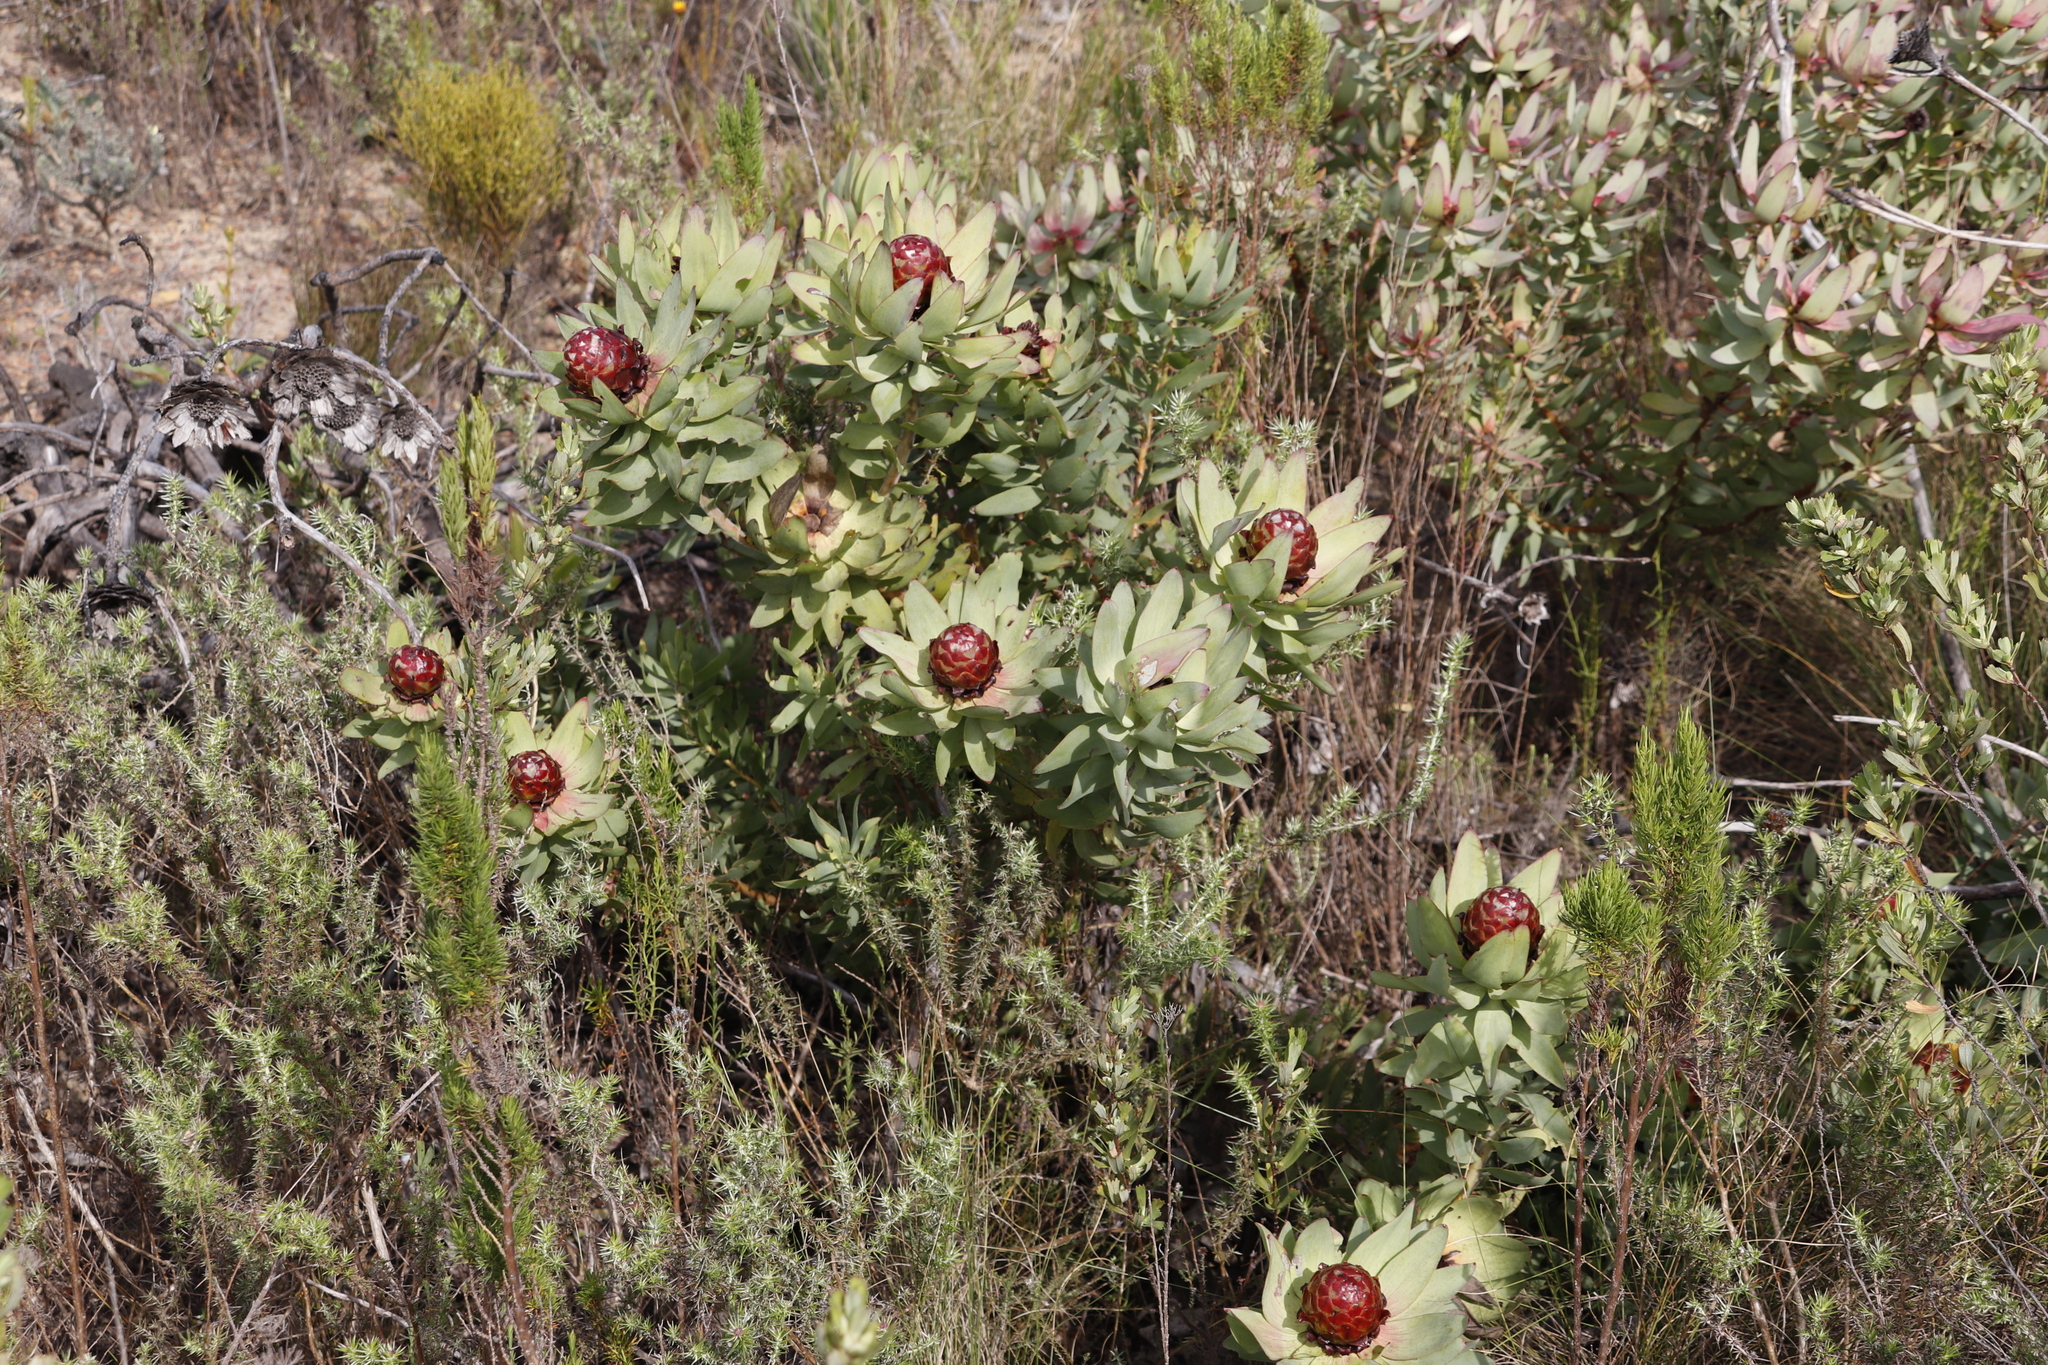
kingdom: Plantae
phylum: Tracheophyta
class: Magnoliopsida
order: Proteales
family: Proteaceae
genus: Leucadendron
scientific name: Leucadendron tinctum
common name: Spicy conebush
